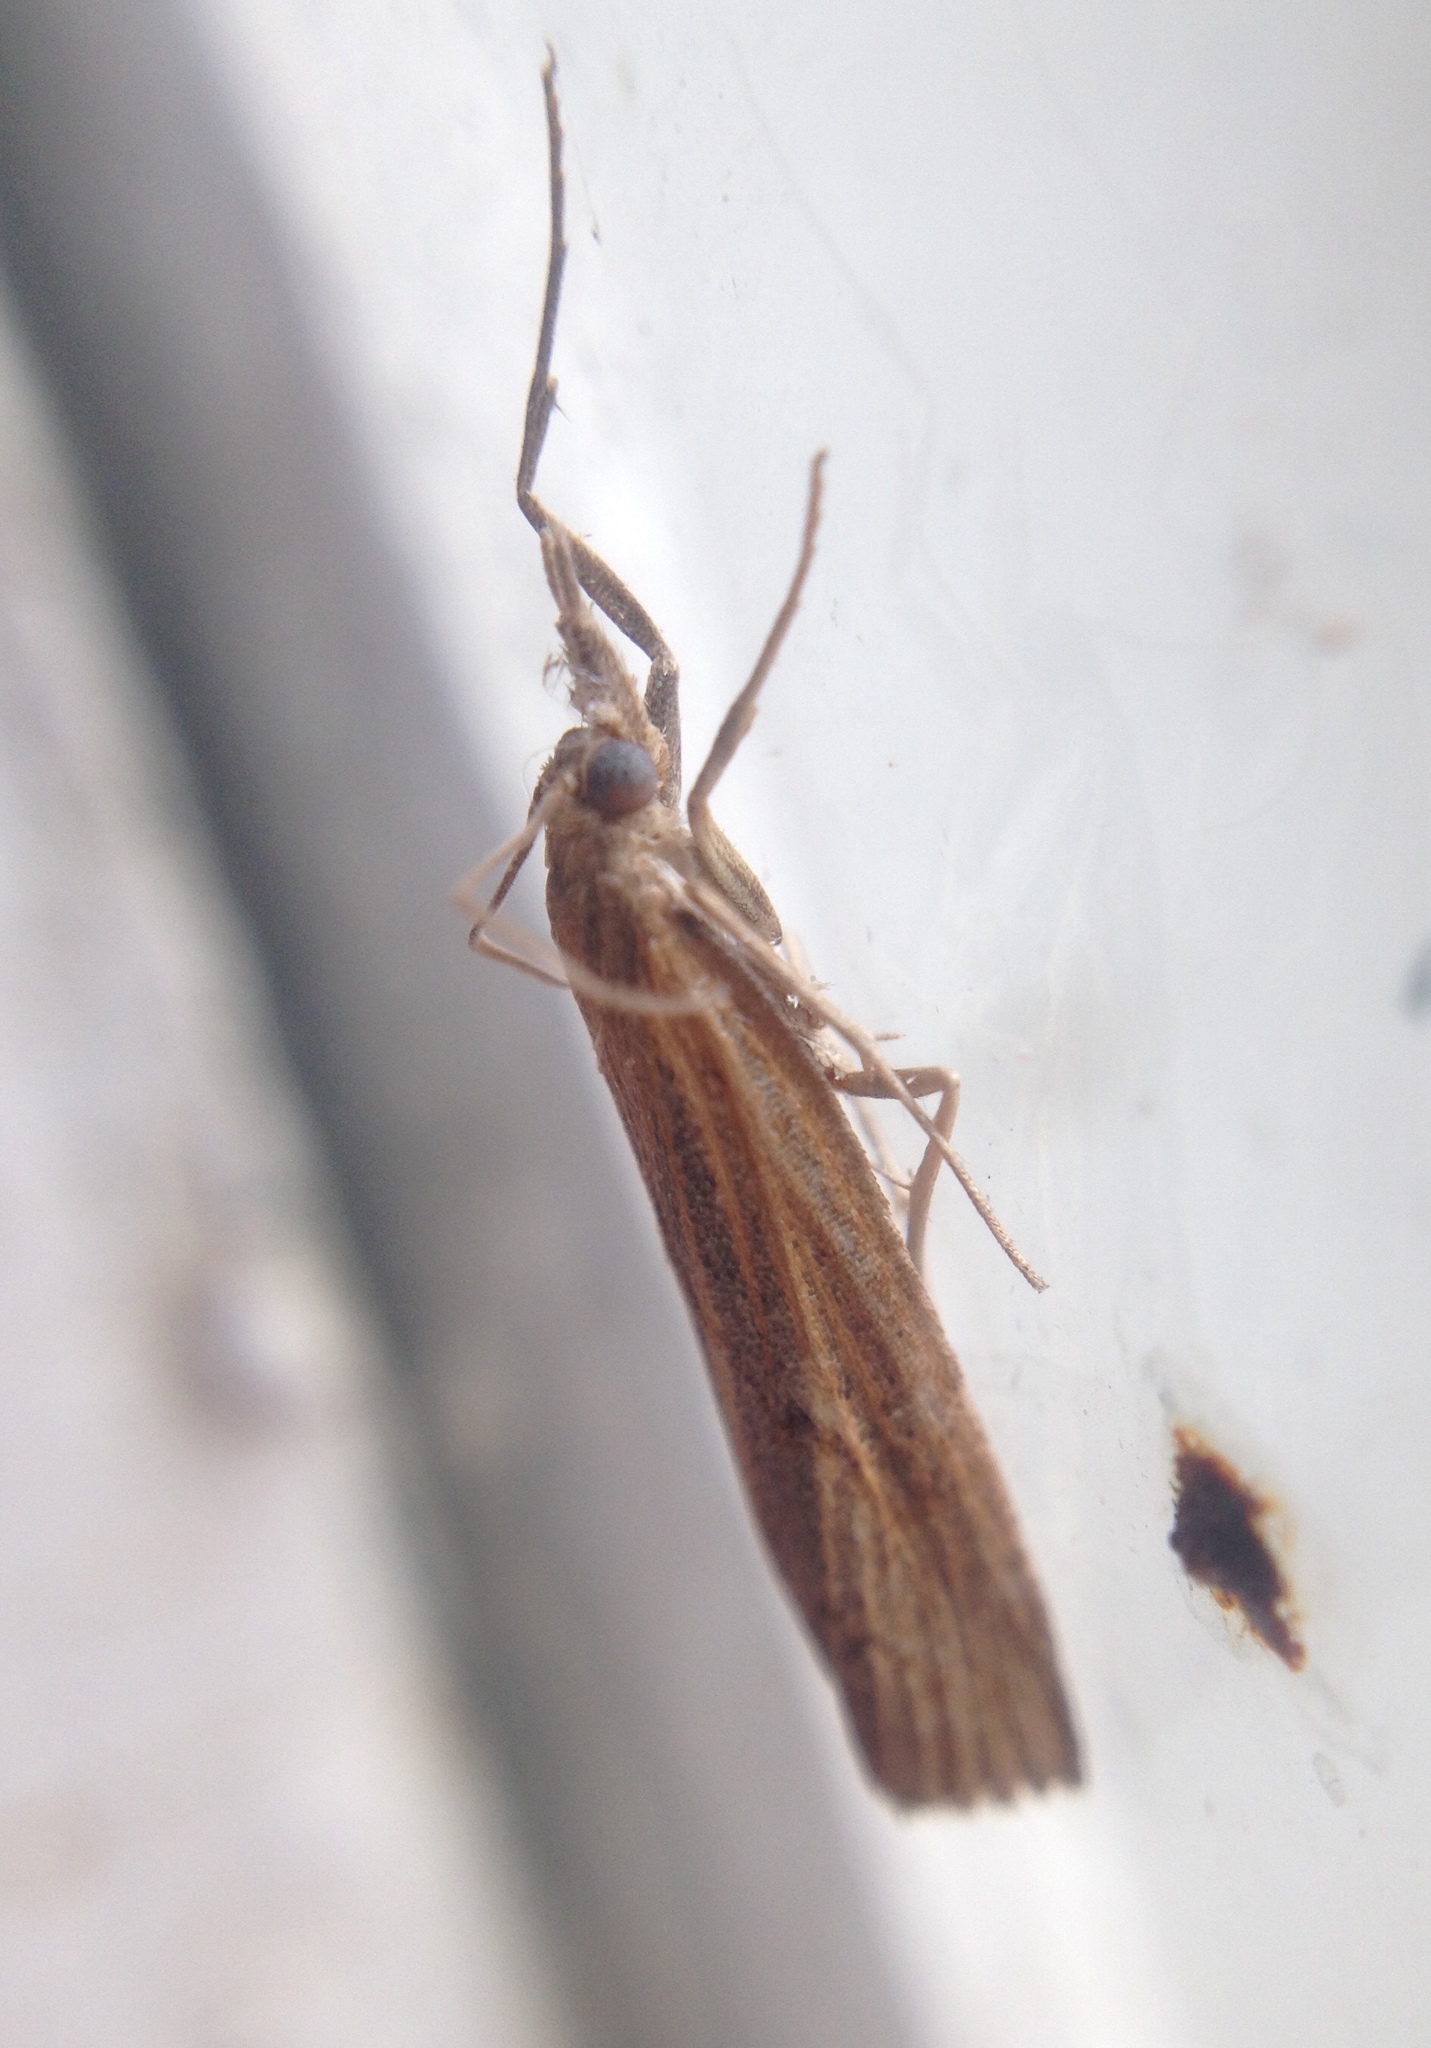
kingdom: Animalia
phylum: Arthropoda
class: Insecta
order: Lepidoptera
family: Crambidae
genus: Pediasia
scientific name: Pediasia contaminella
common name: Waste grass-veneer
